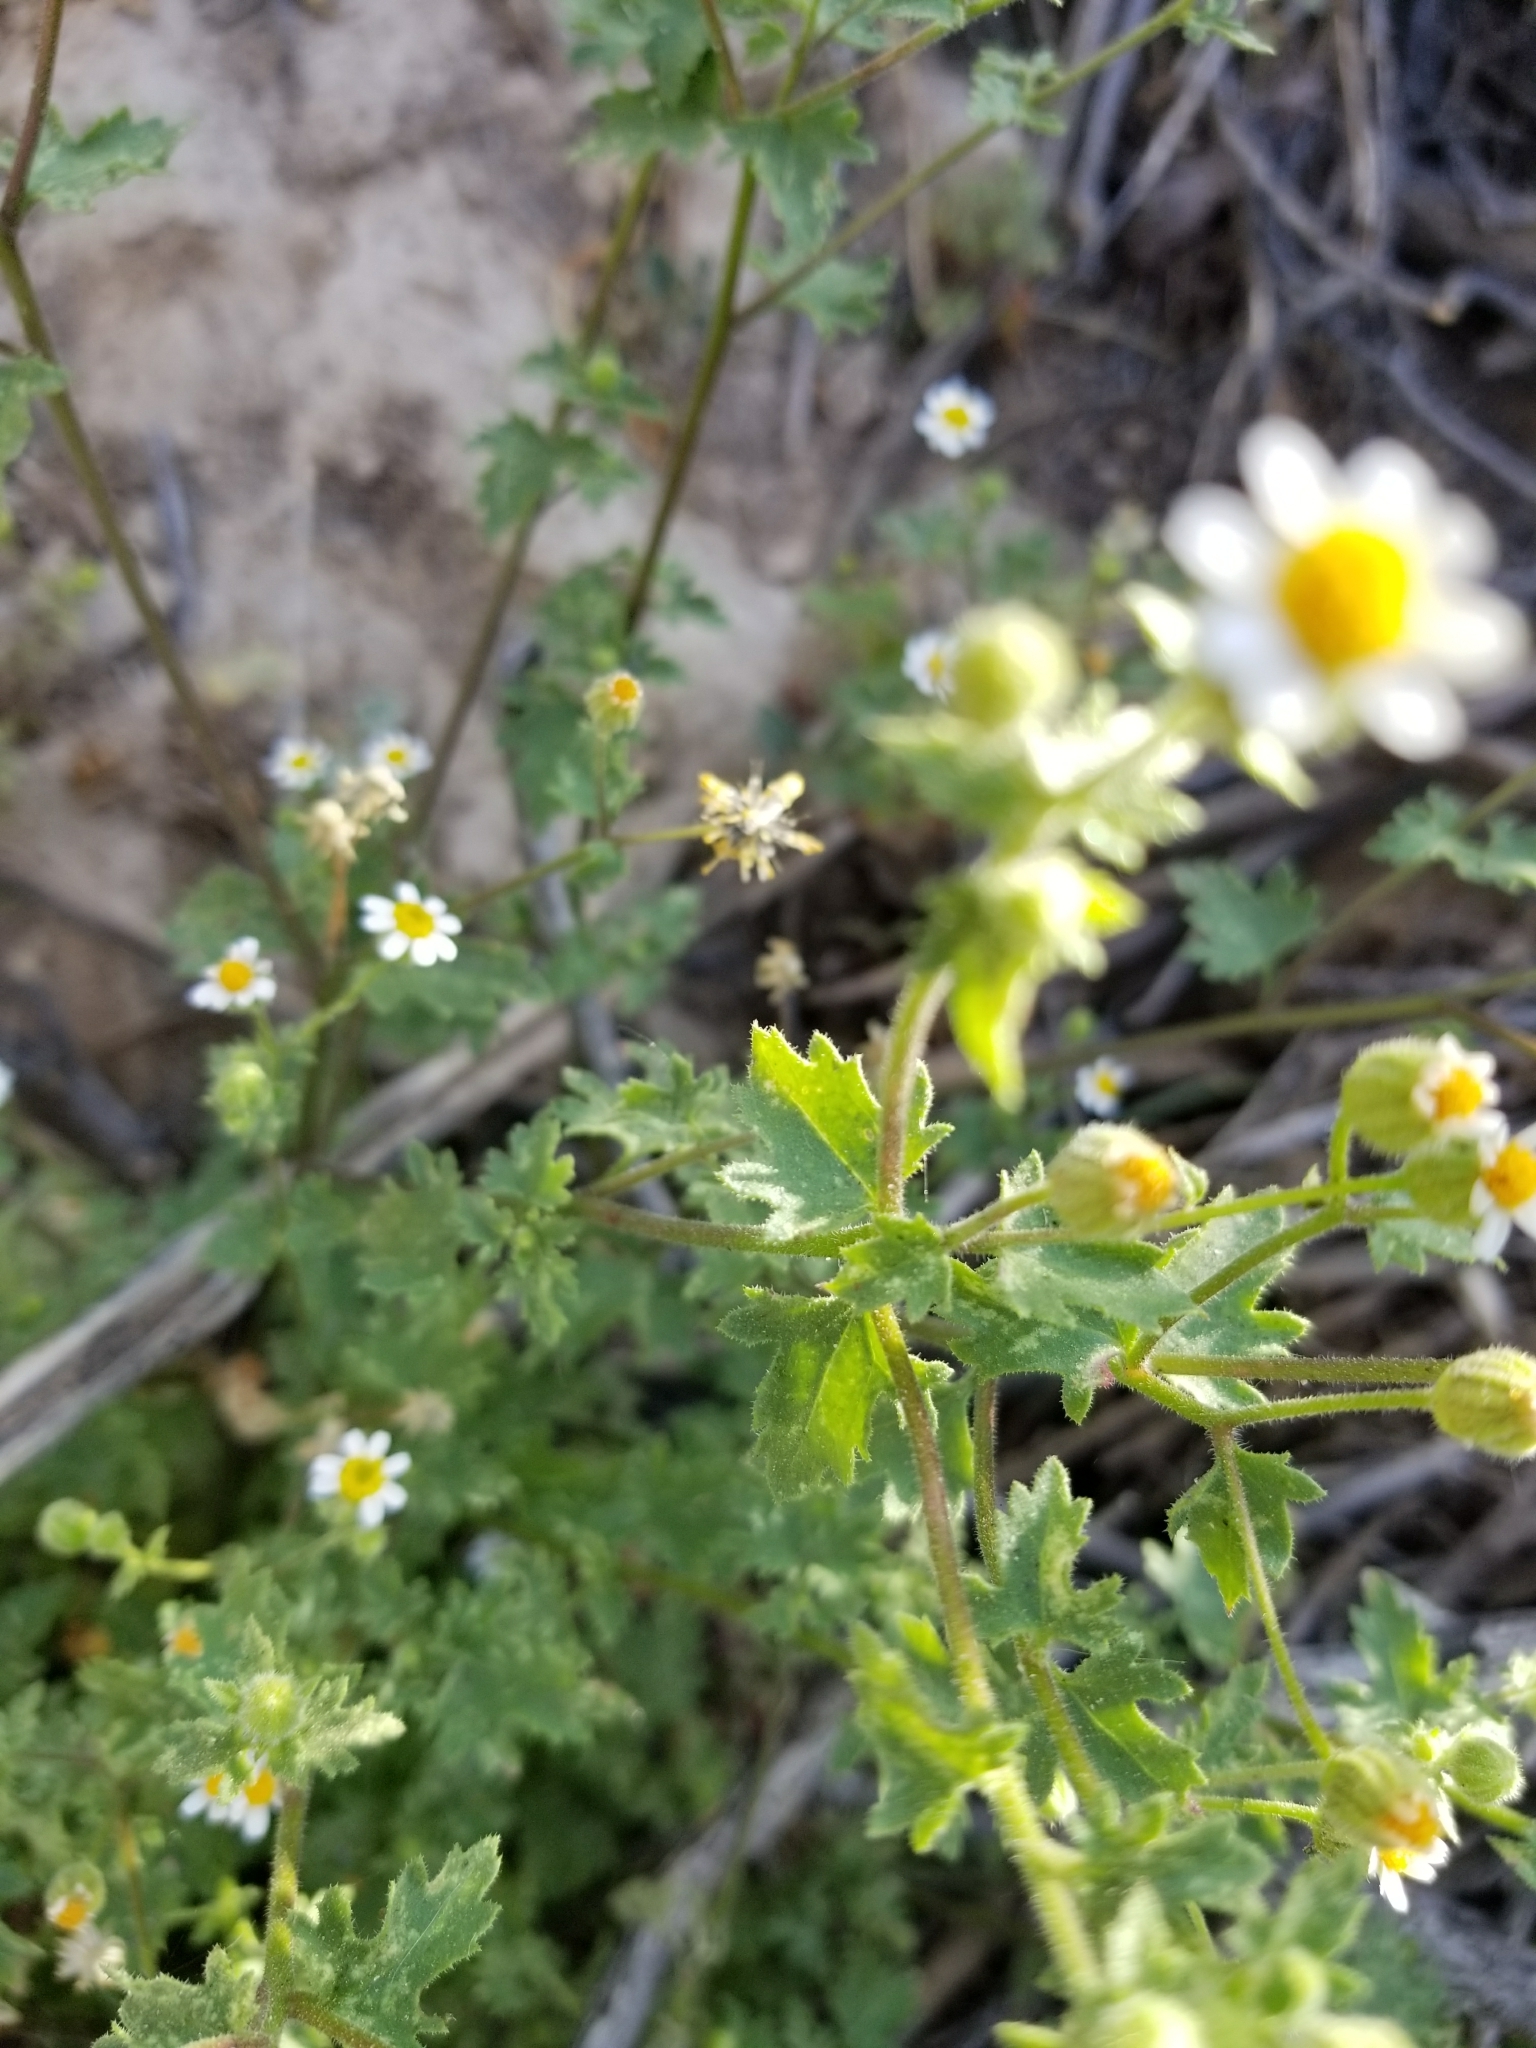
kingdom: Plantae
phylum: Tracheophyta
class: Magnoliopsida
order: Asterales
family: Asteraceae
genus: Laphamia
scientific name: Laphamia emoryi
